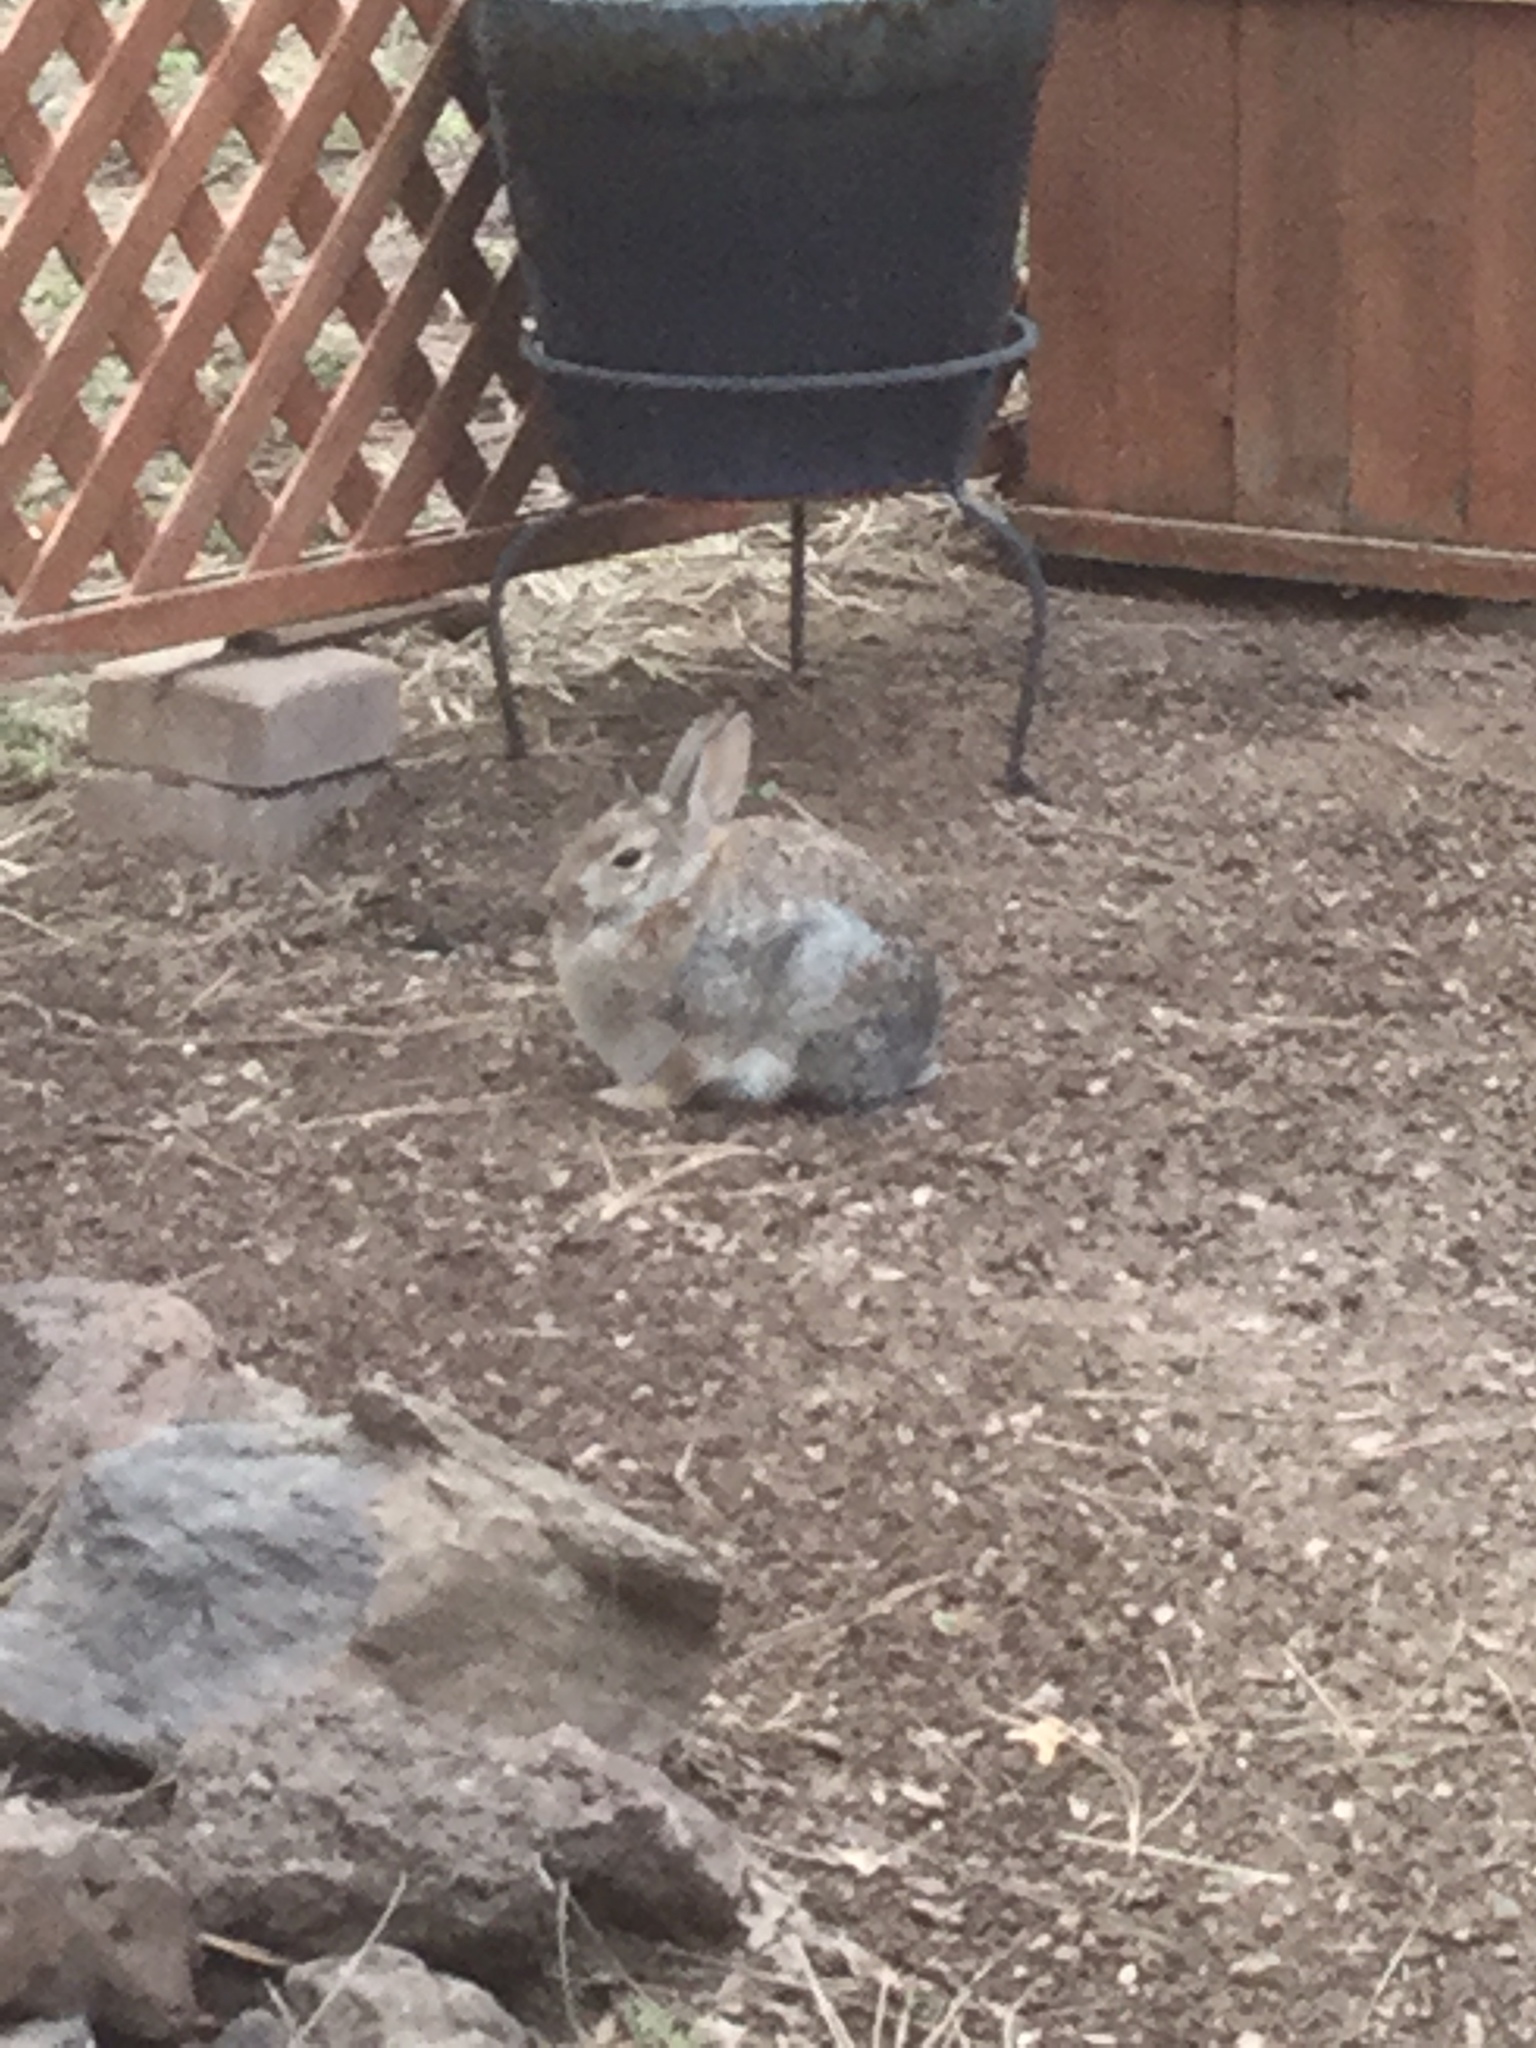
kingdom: Animalia
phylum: Chordata
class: Mammalia
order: Lagomorpha
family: Leporidae
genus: Sylvilagus
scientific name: Sylvilagus audubonii
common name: Desert cottontail
